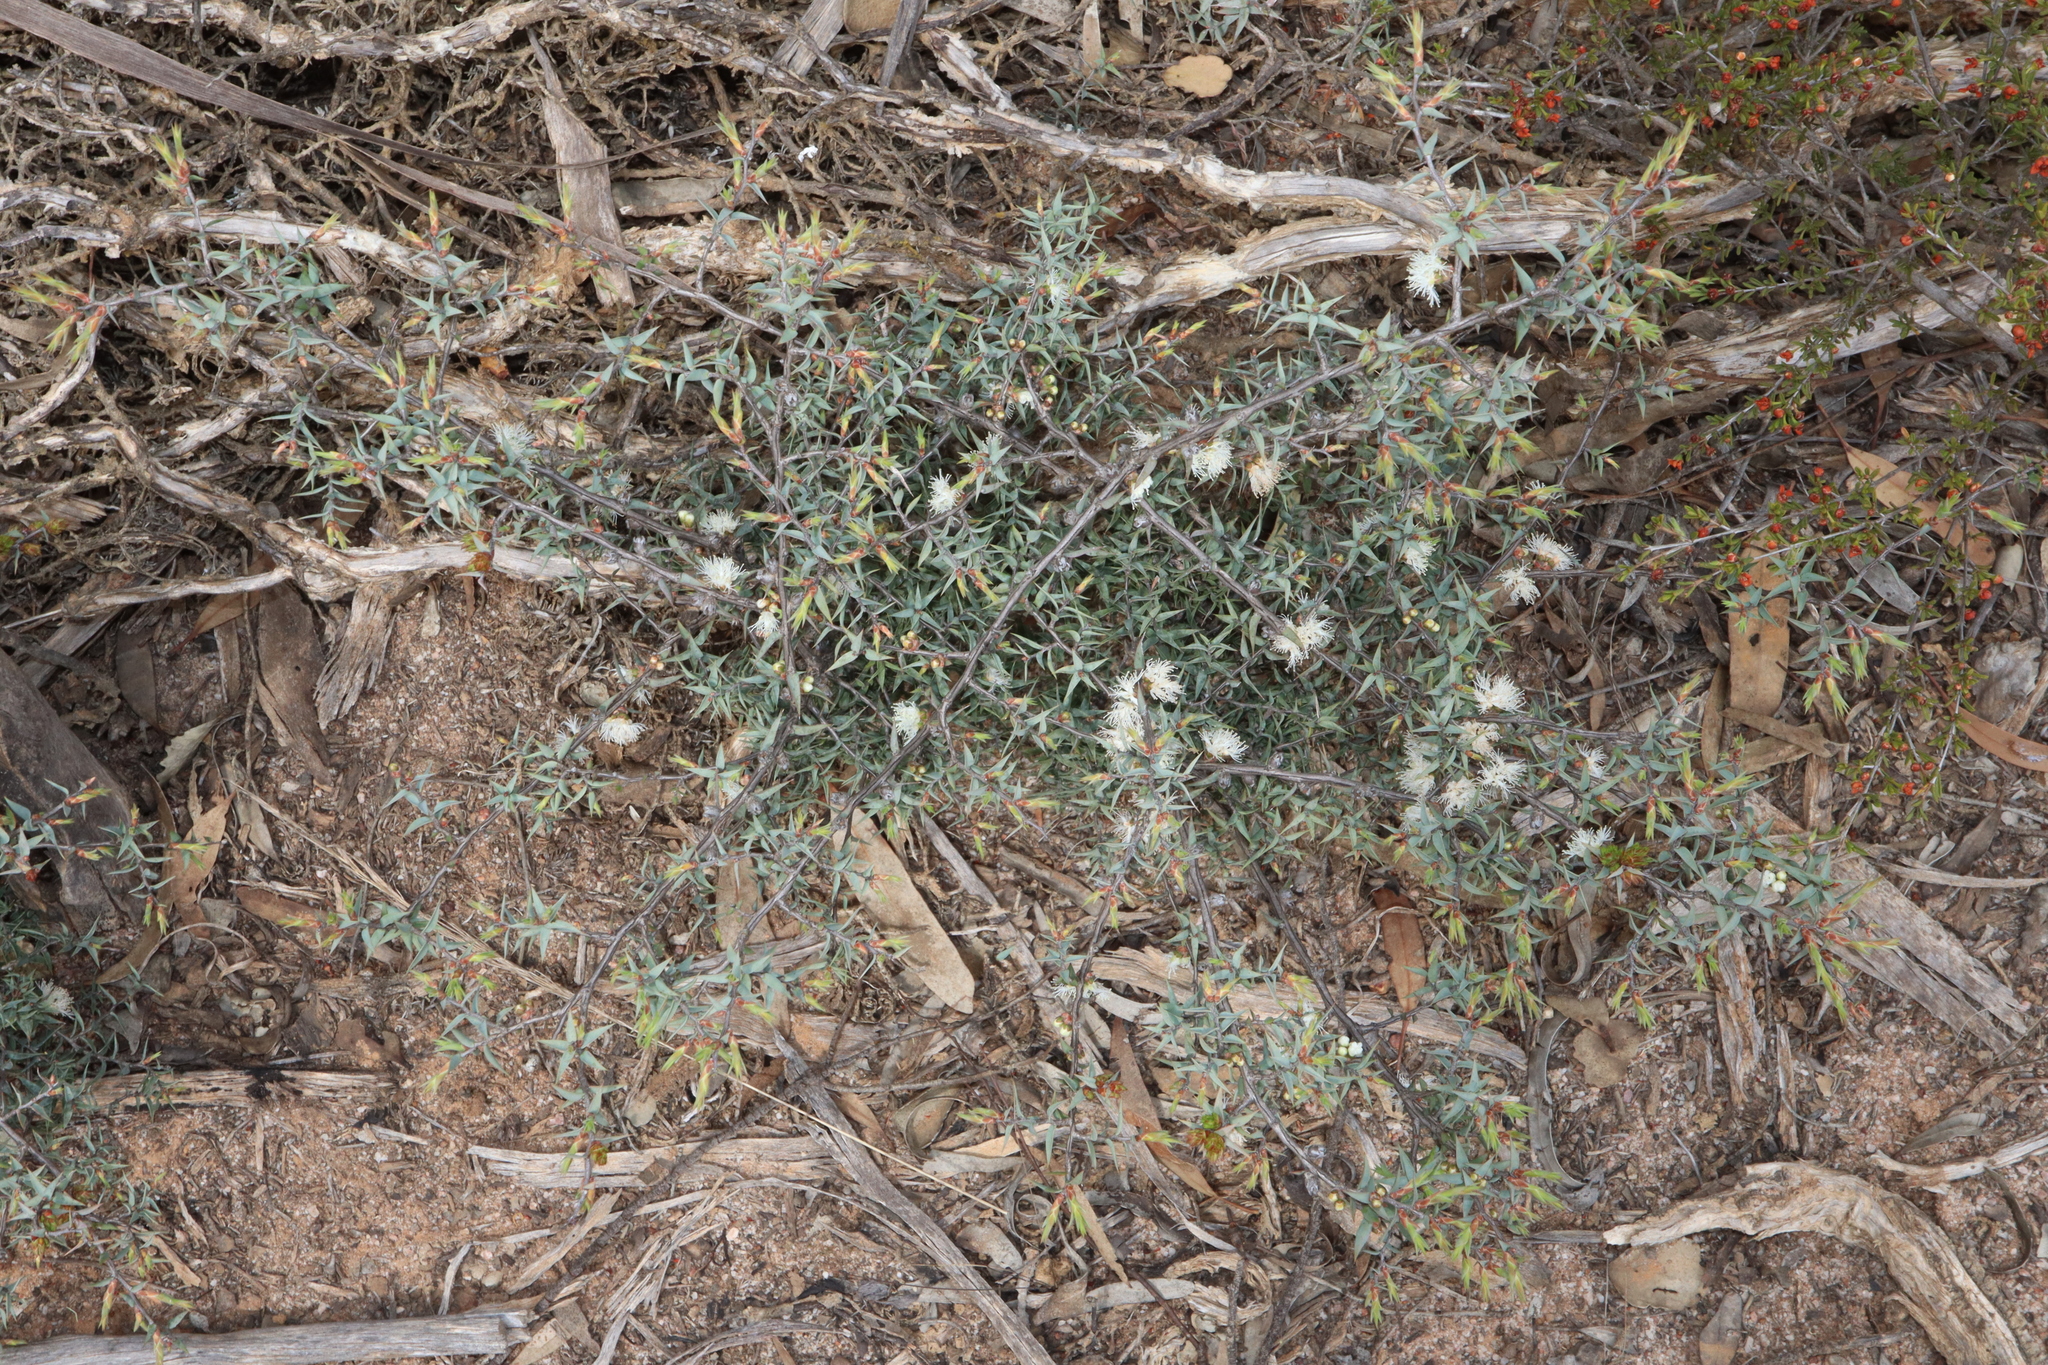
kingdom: Plantae
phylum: Tracheophyta
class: Magnoliopsida
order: Myrtales
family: Myrtaceae
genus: Melaleuca
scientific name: Melaleuca marginata
